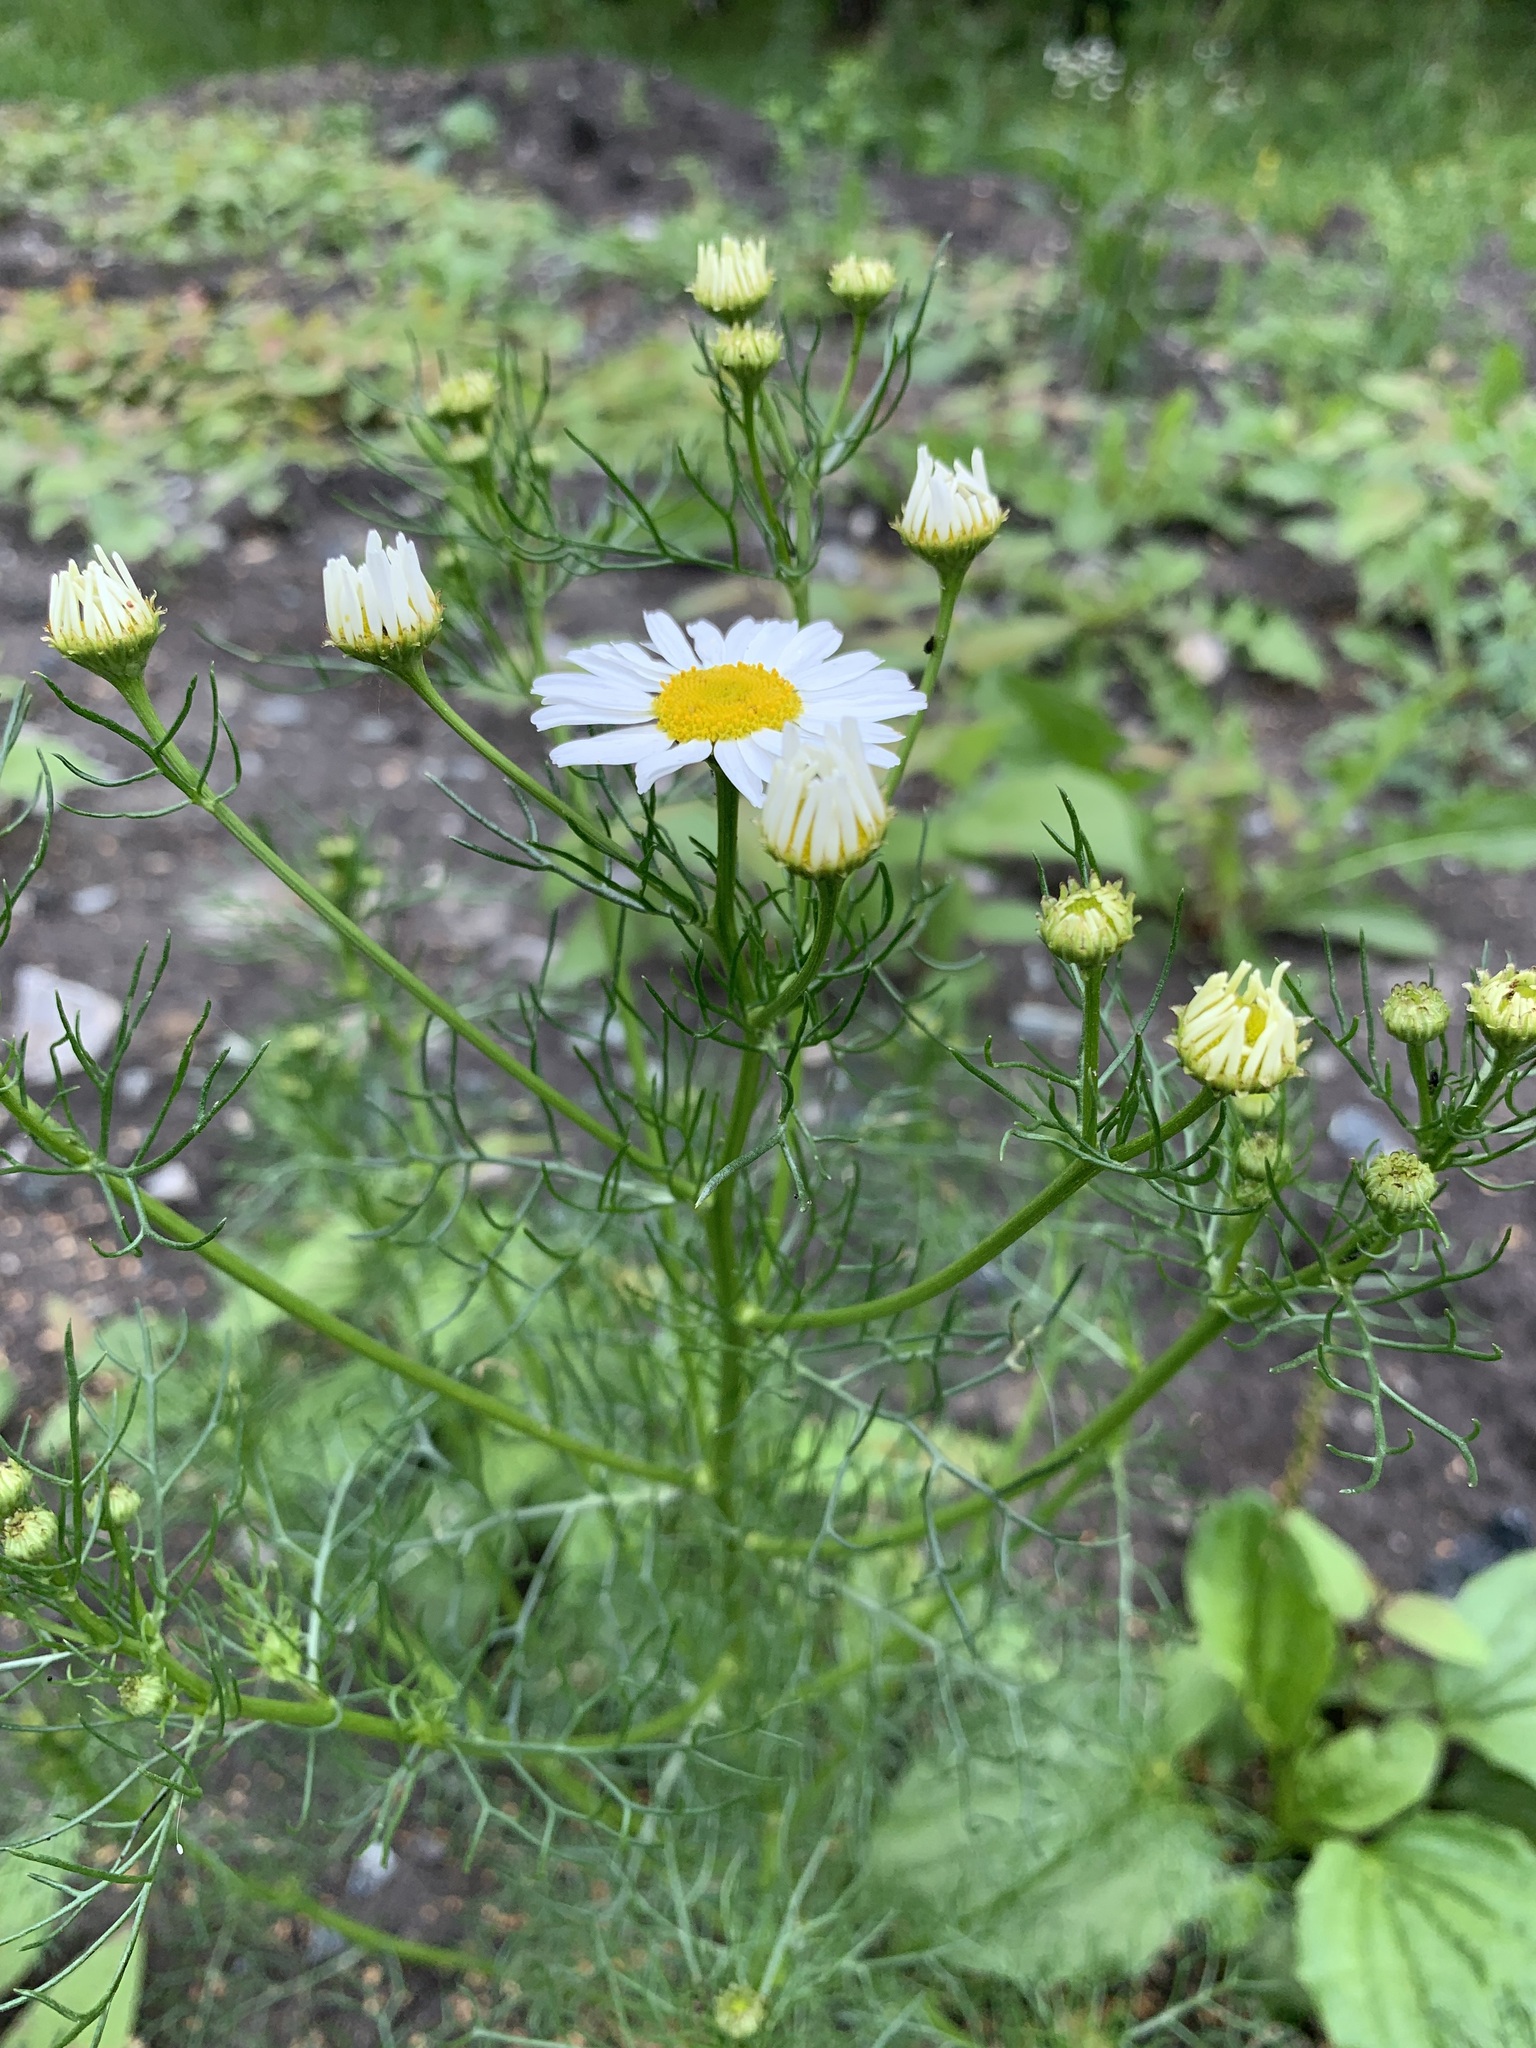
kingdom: Plantae
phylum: Tracheophyta
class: Magnoliopsida
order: Asterales
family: Asteraceae
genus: Tripleurospermum
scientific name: Tripleurospermum inodorum
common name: Scentless mayweed
